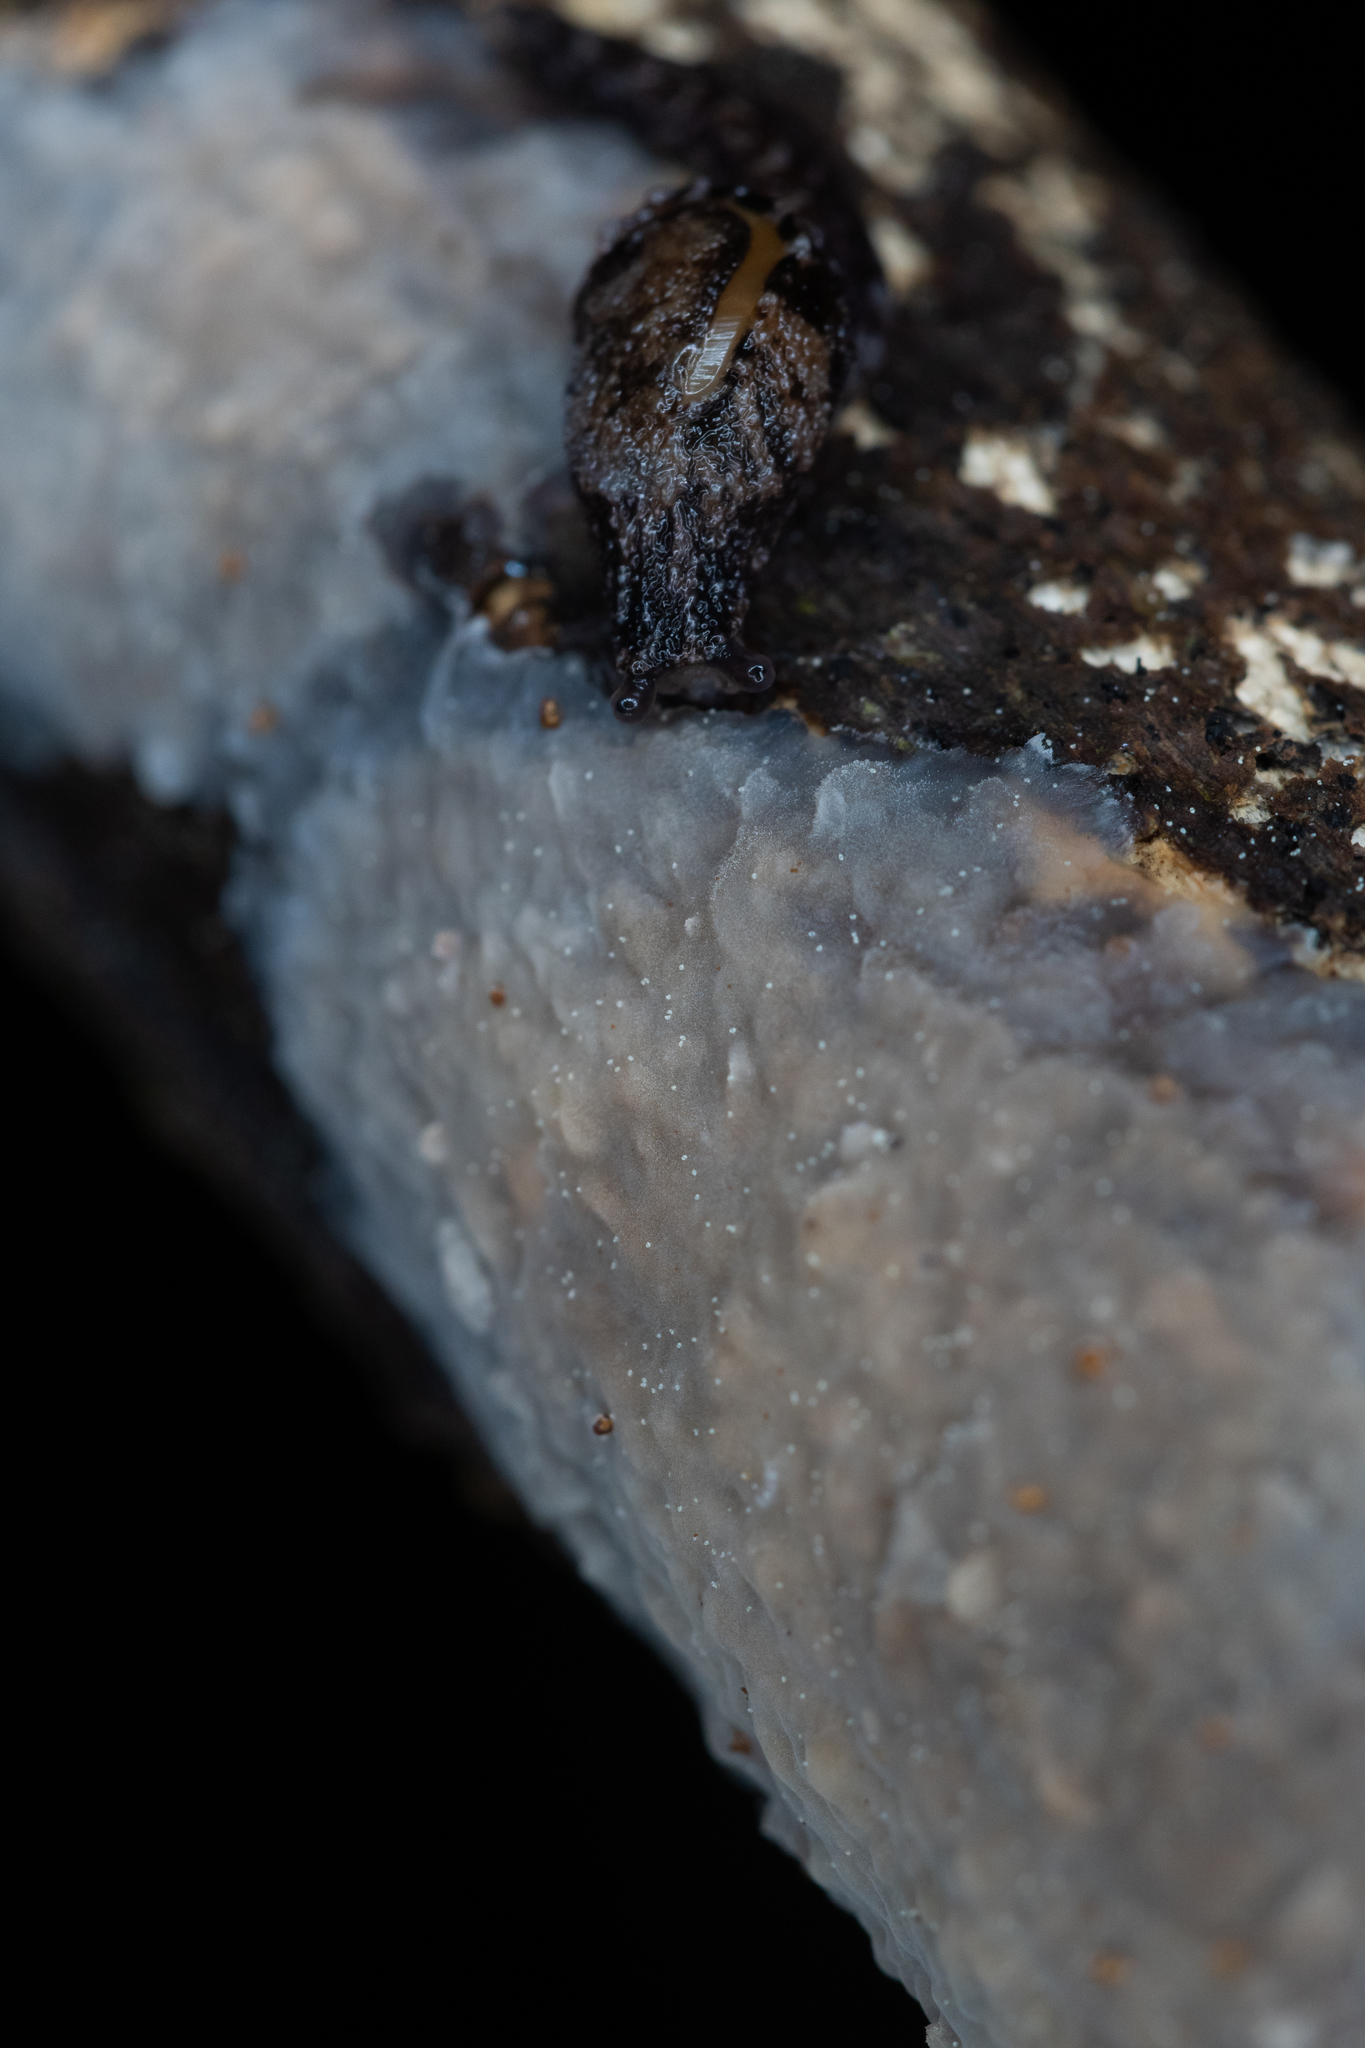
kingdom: Animalia
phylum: Mollusca
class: Gastropoda
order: Stylommatophora
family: Charopidae
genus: Otoconcha
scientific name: Otoconcha dimidiata
